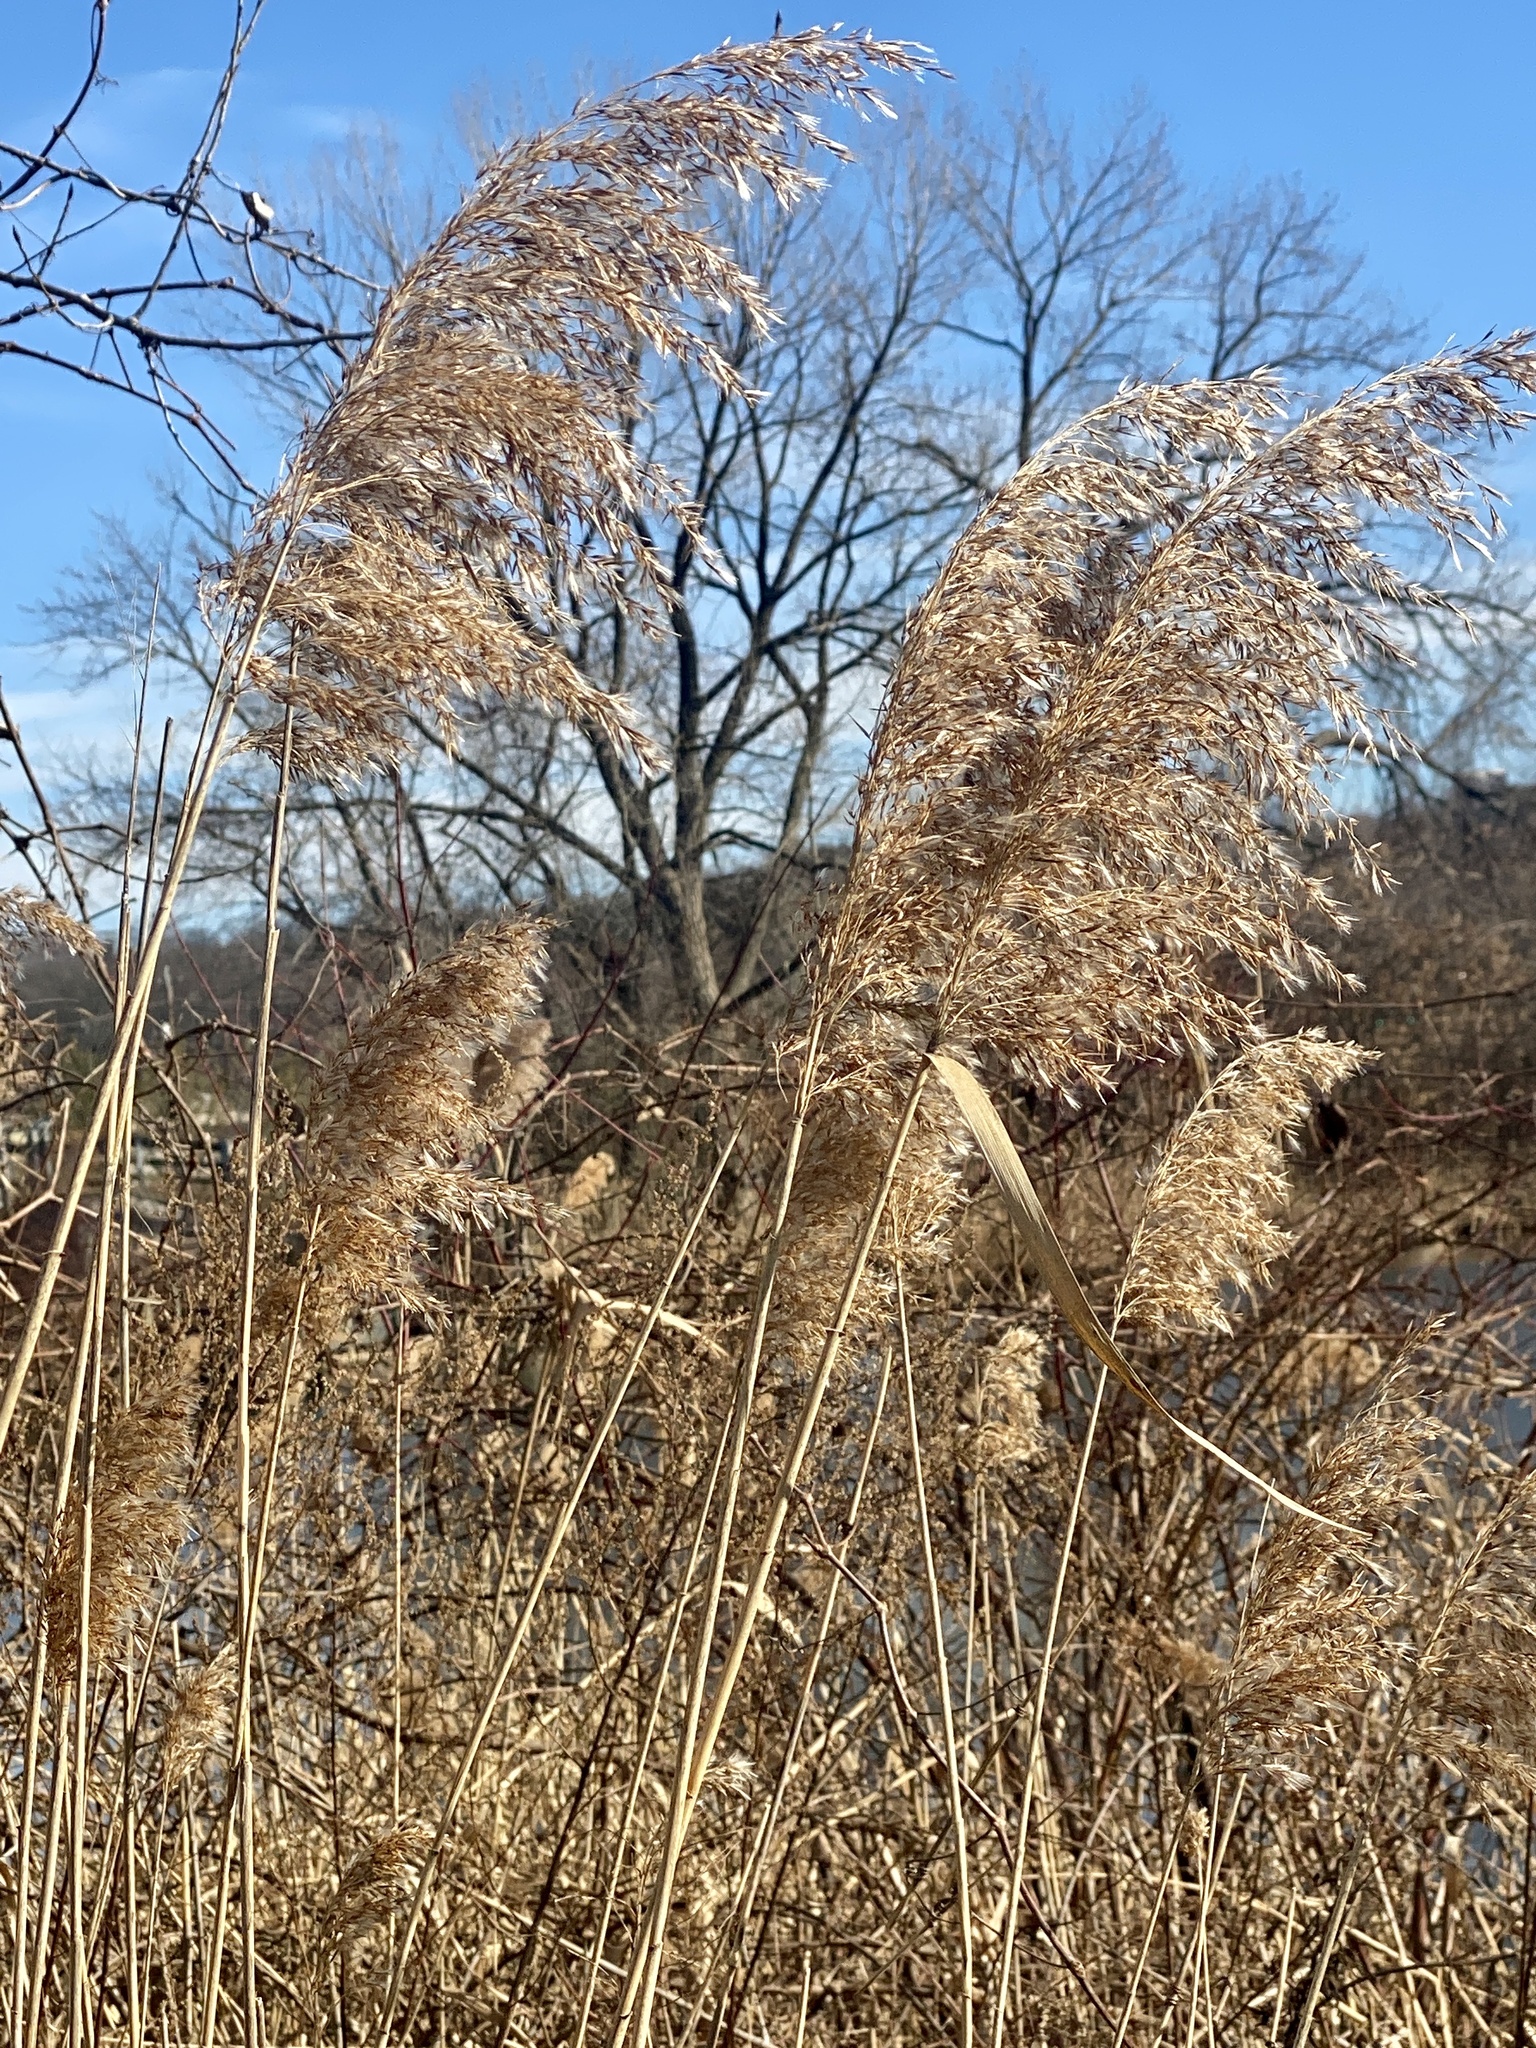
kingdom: Plantae
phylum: Tracheophyta
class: Liliopsida
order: Poales
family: Poaceae
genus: Phragmites
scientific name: Phragmites australis
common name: Common reed
